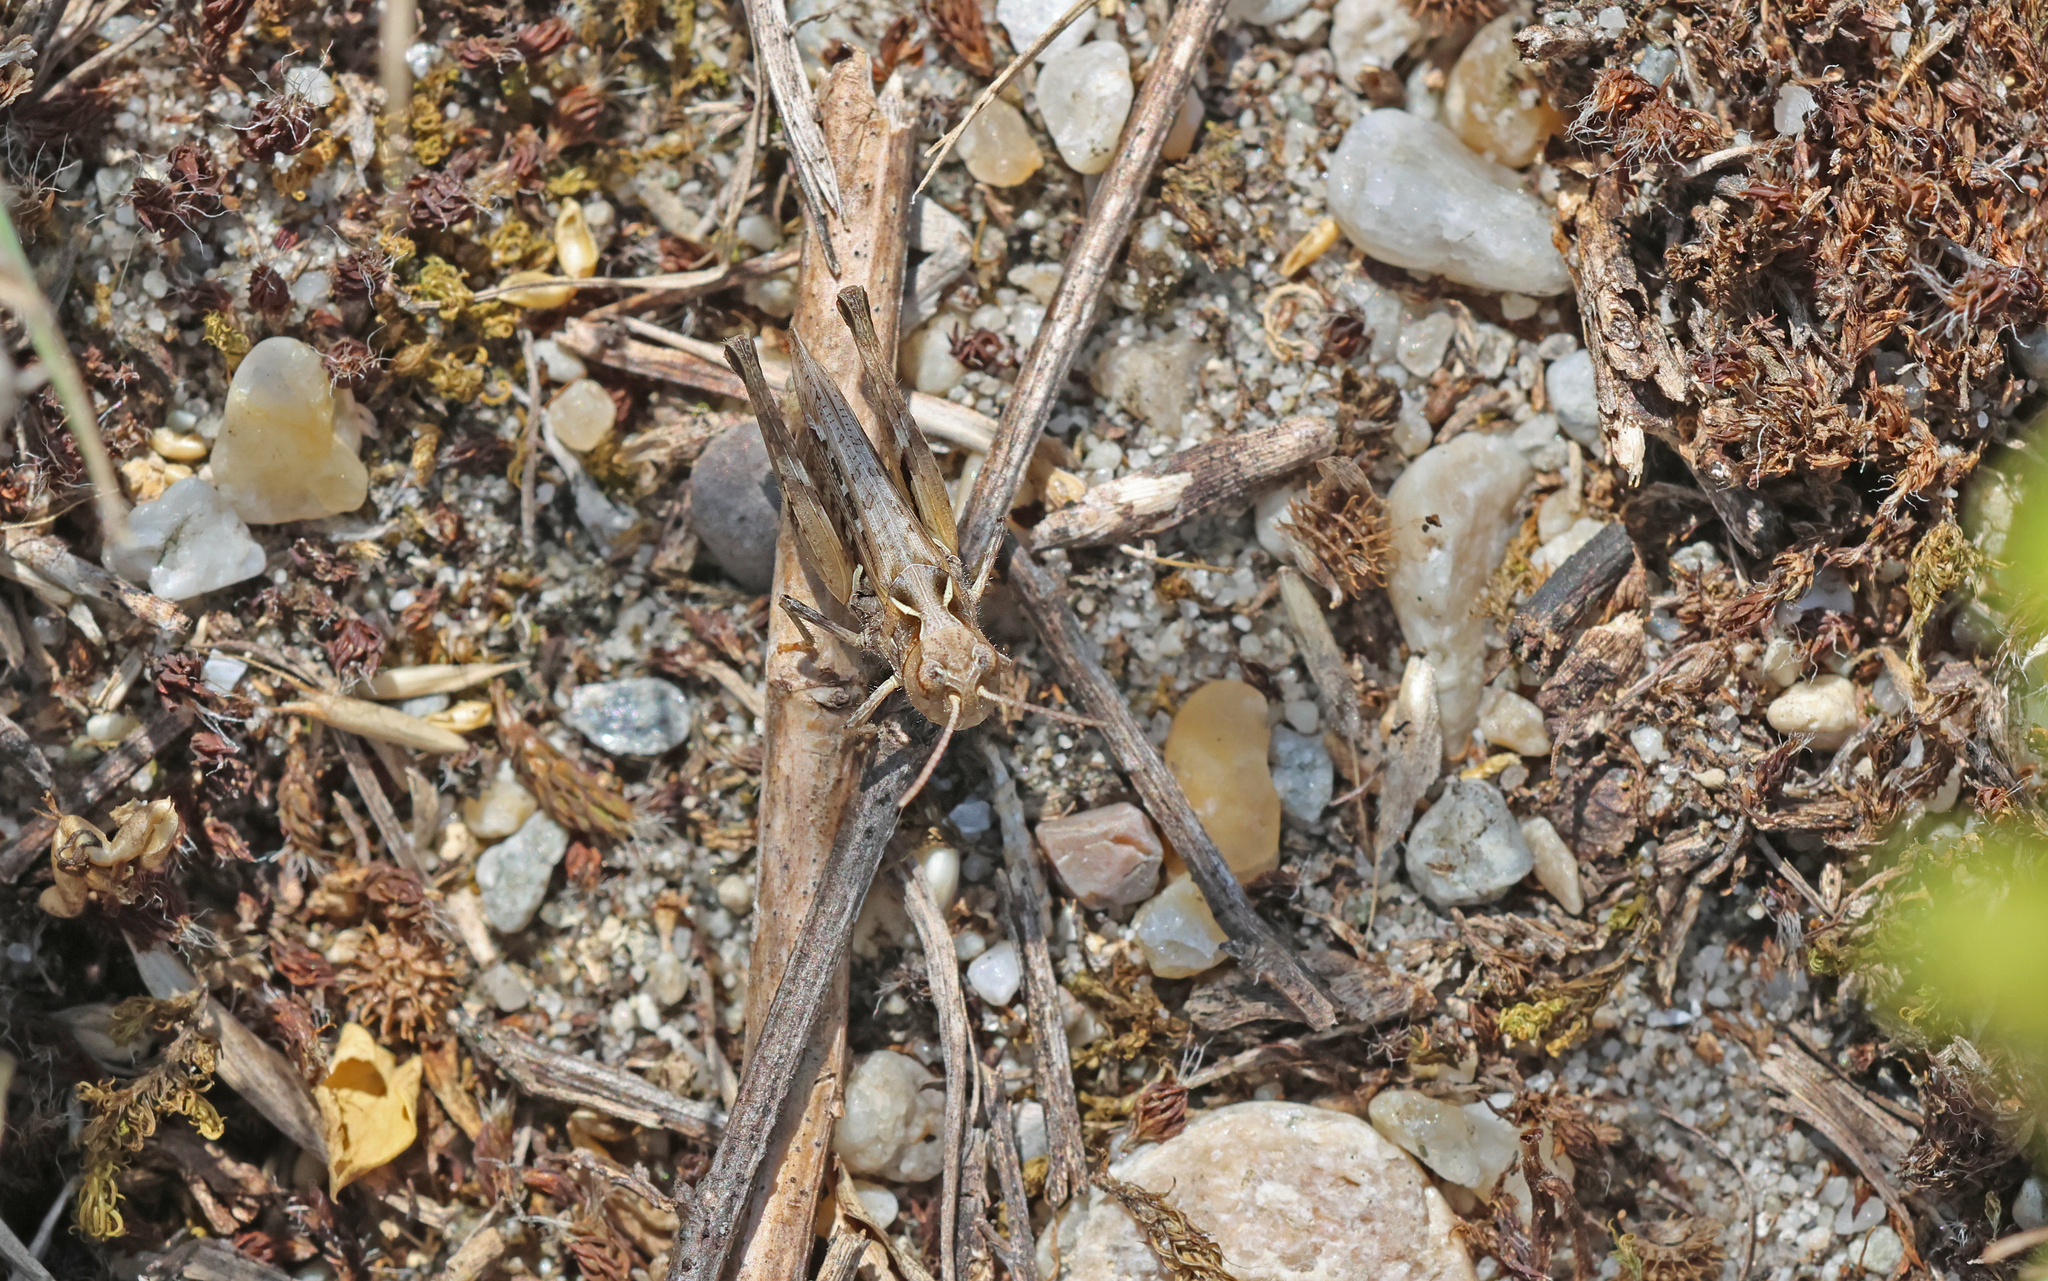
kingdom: Animalia
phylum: Arthropoda
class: Insecta
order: Orthoptera
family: Acrididae
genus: Dociostaurus
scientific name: Dociostaurus brevicollis
